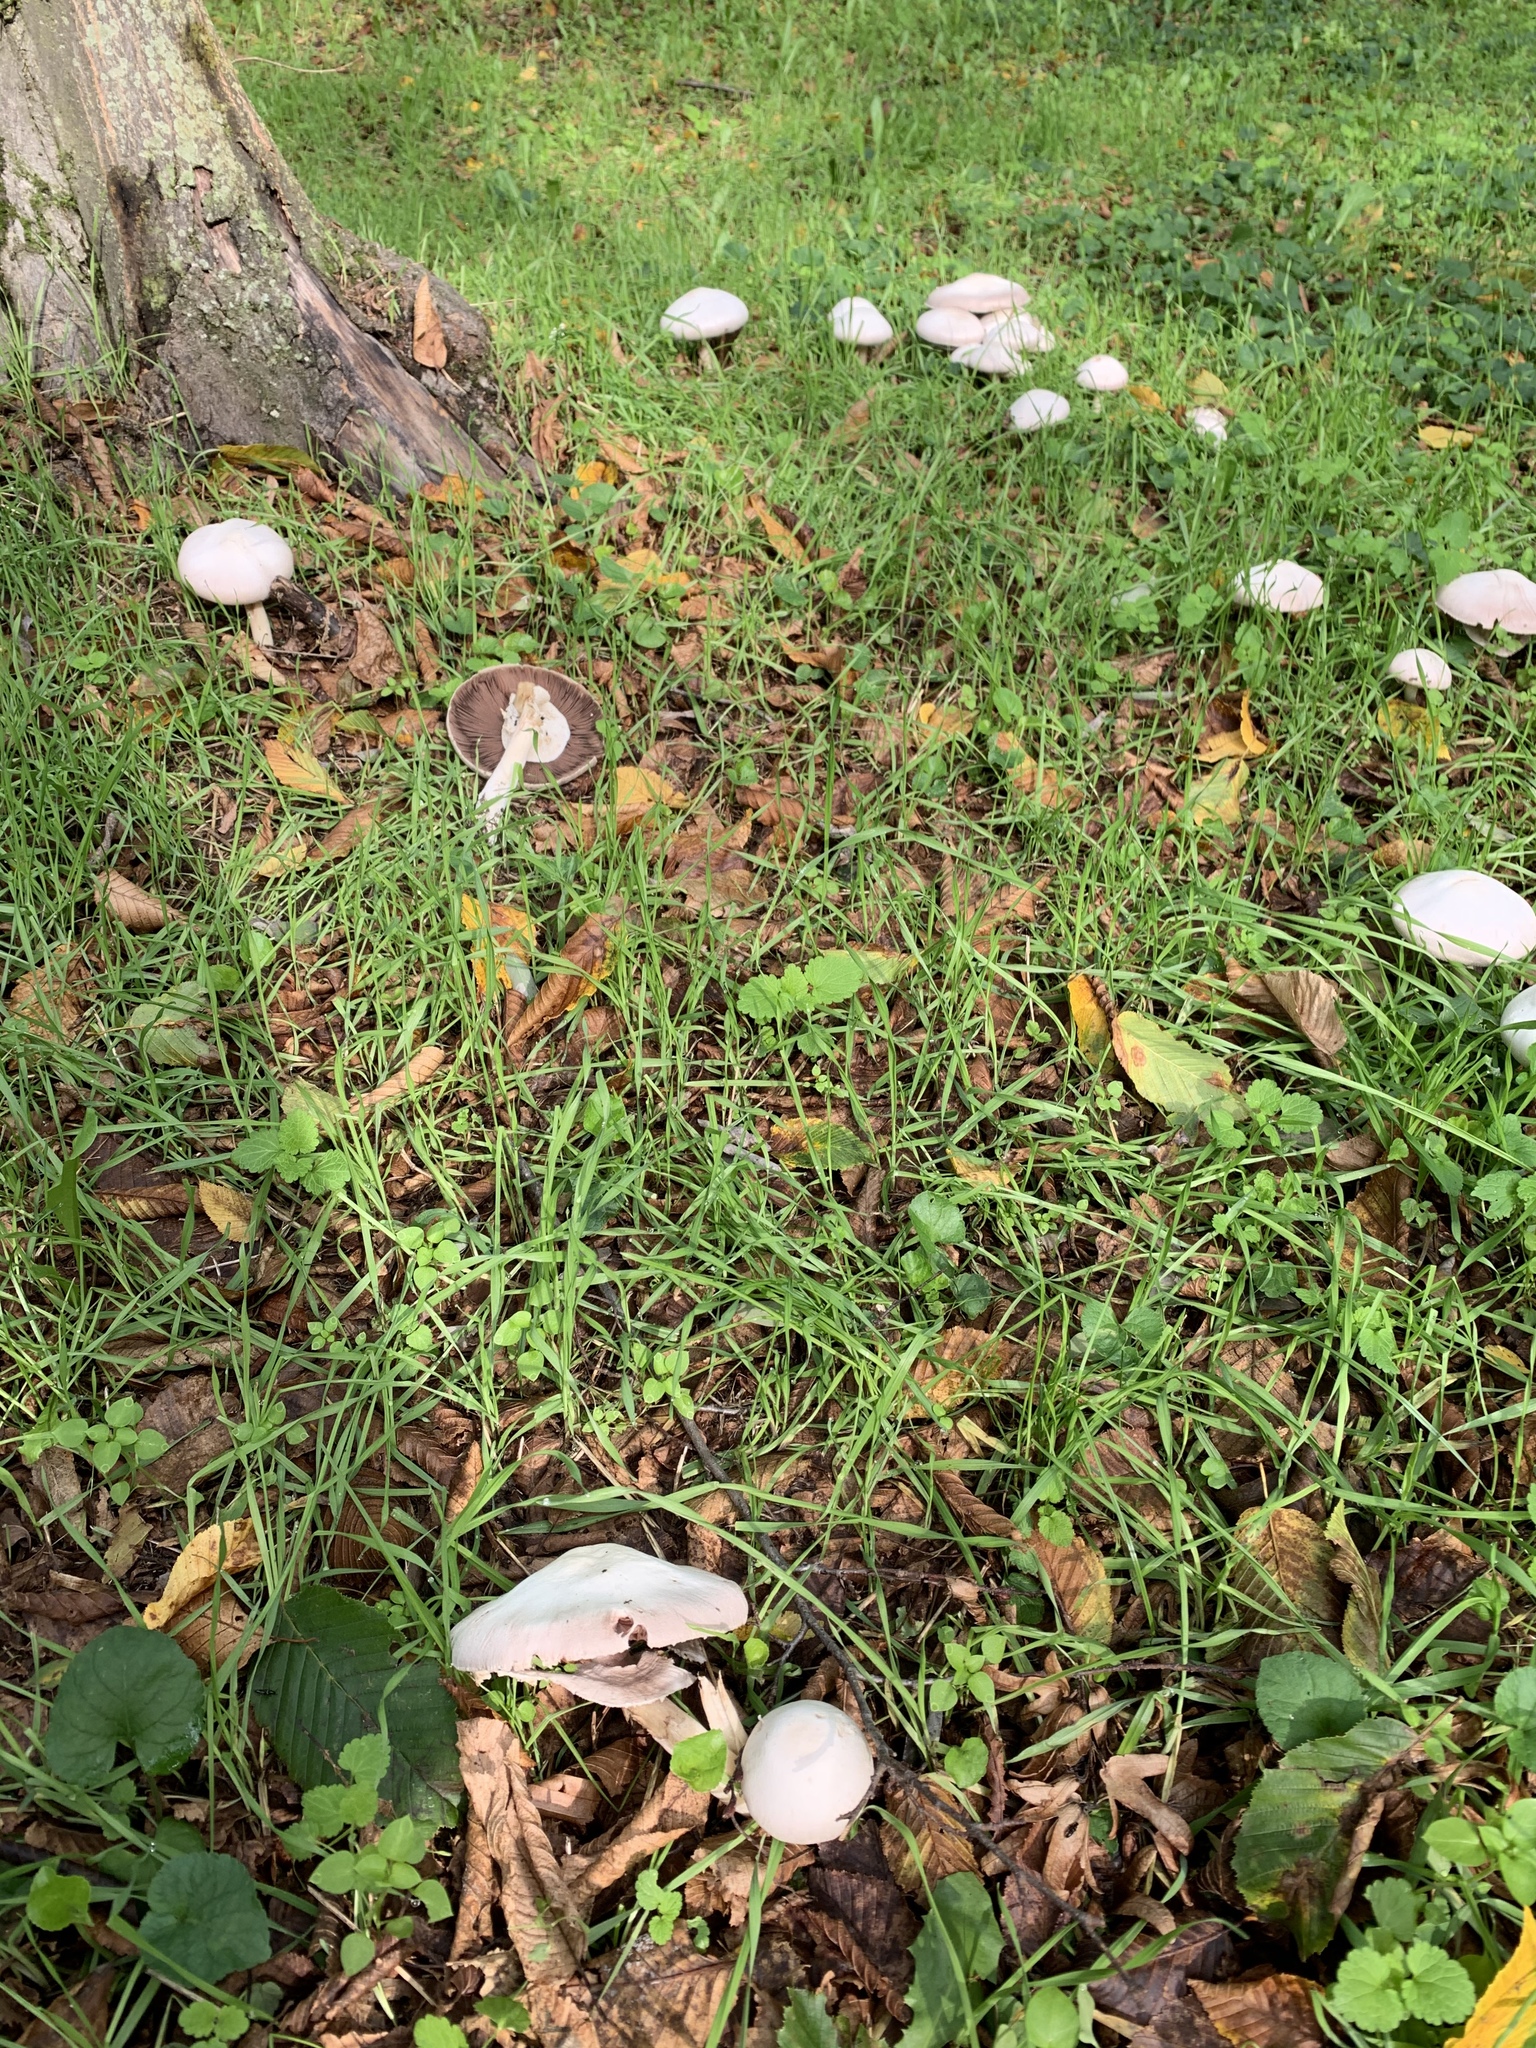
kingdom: Fungi
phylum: Basidiomycota
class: Agaricomycetes
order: Agaricales
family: Agaricaceae
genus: Agaricus
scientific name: Agaricus sylvicola
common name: Wood mushroom
